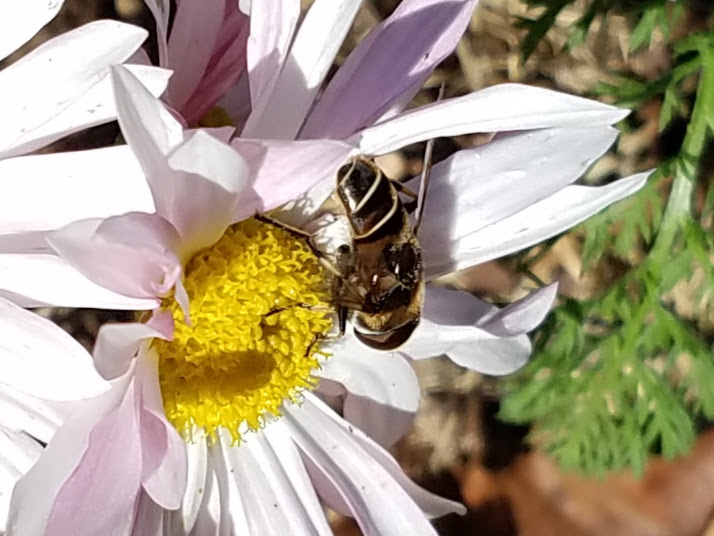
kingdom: Animalia
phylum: Arthropoda
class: Insecta
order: Diptera
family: Syrphidae
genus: Eristalis
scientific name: Eristalis dimidiata
